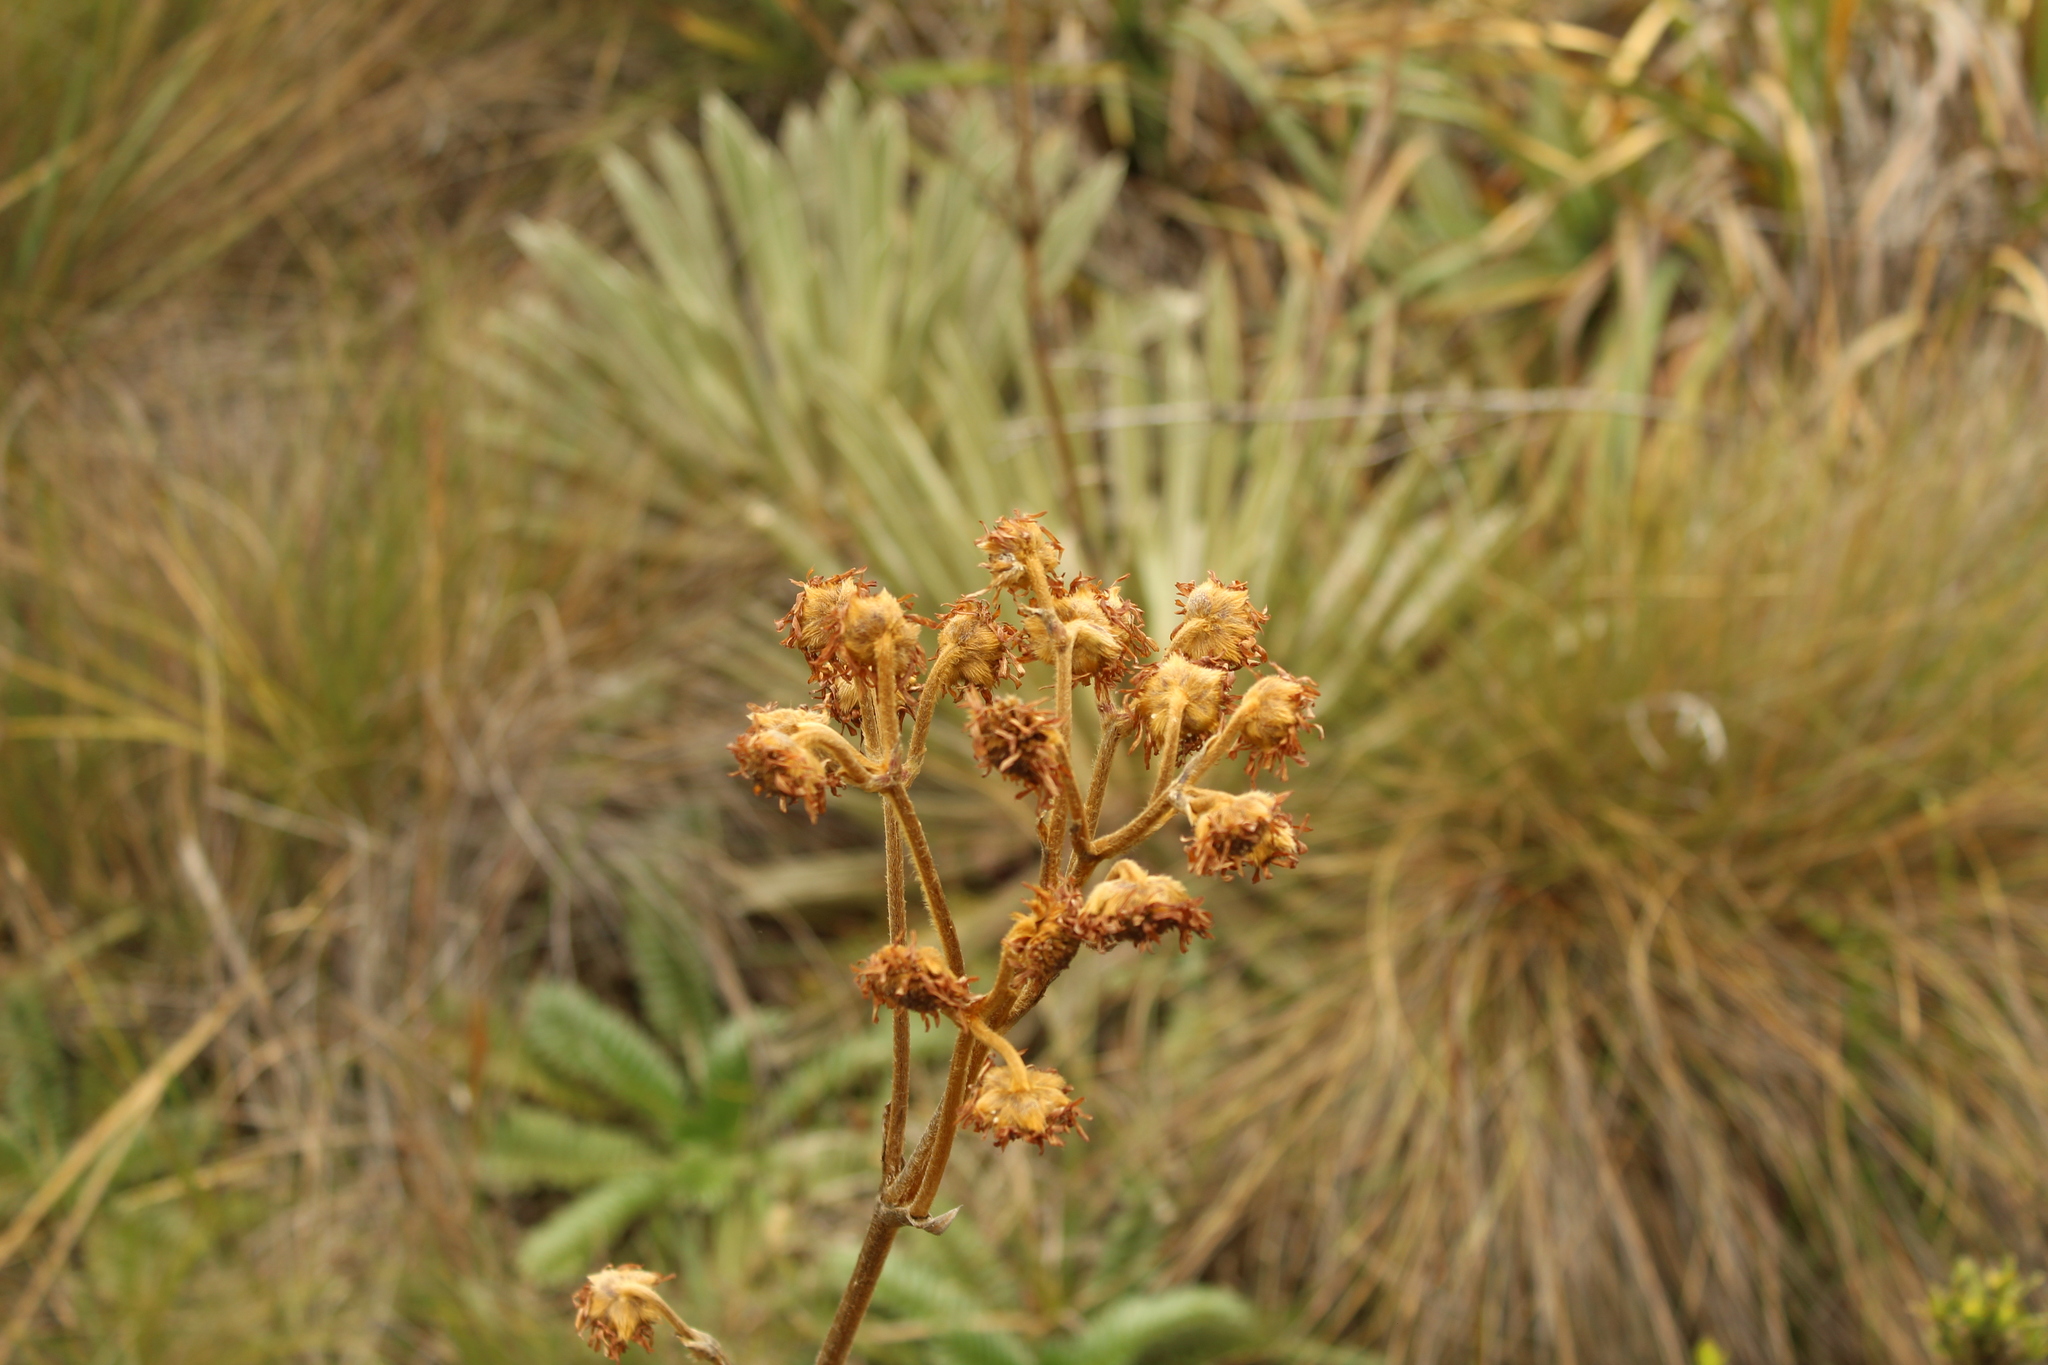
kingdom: Plantae
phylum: Tracheophyta
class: Magnoliopsida
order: Asterales
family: Asteraceae
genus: Espeletia
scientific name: Espeletia muiska
